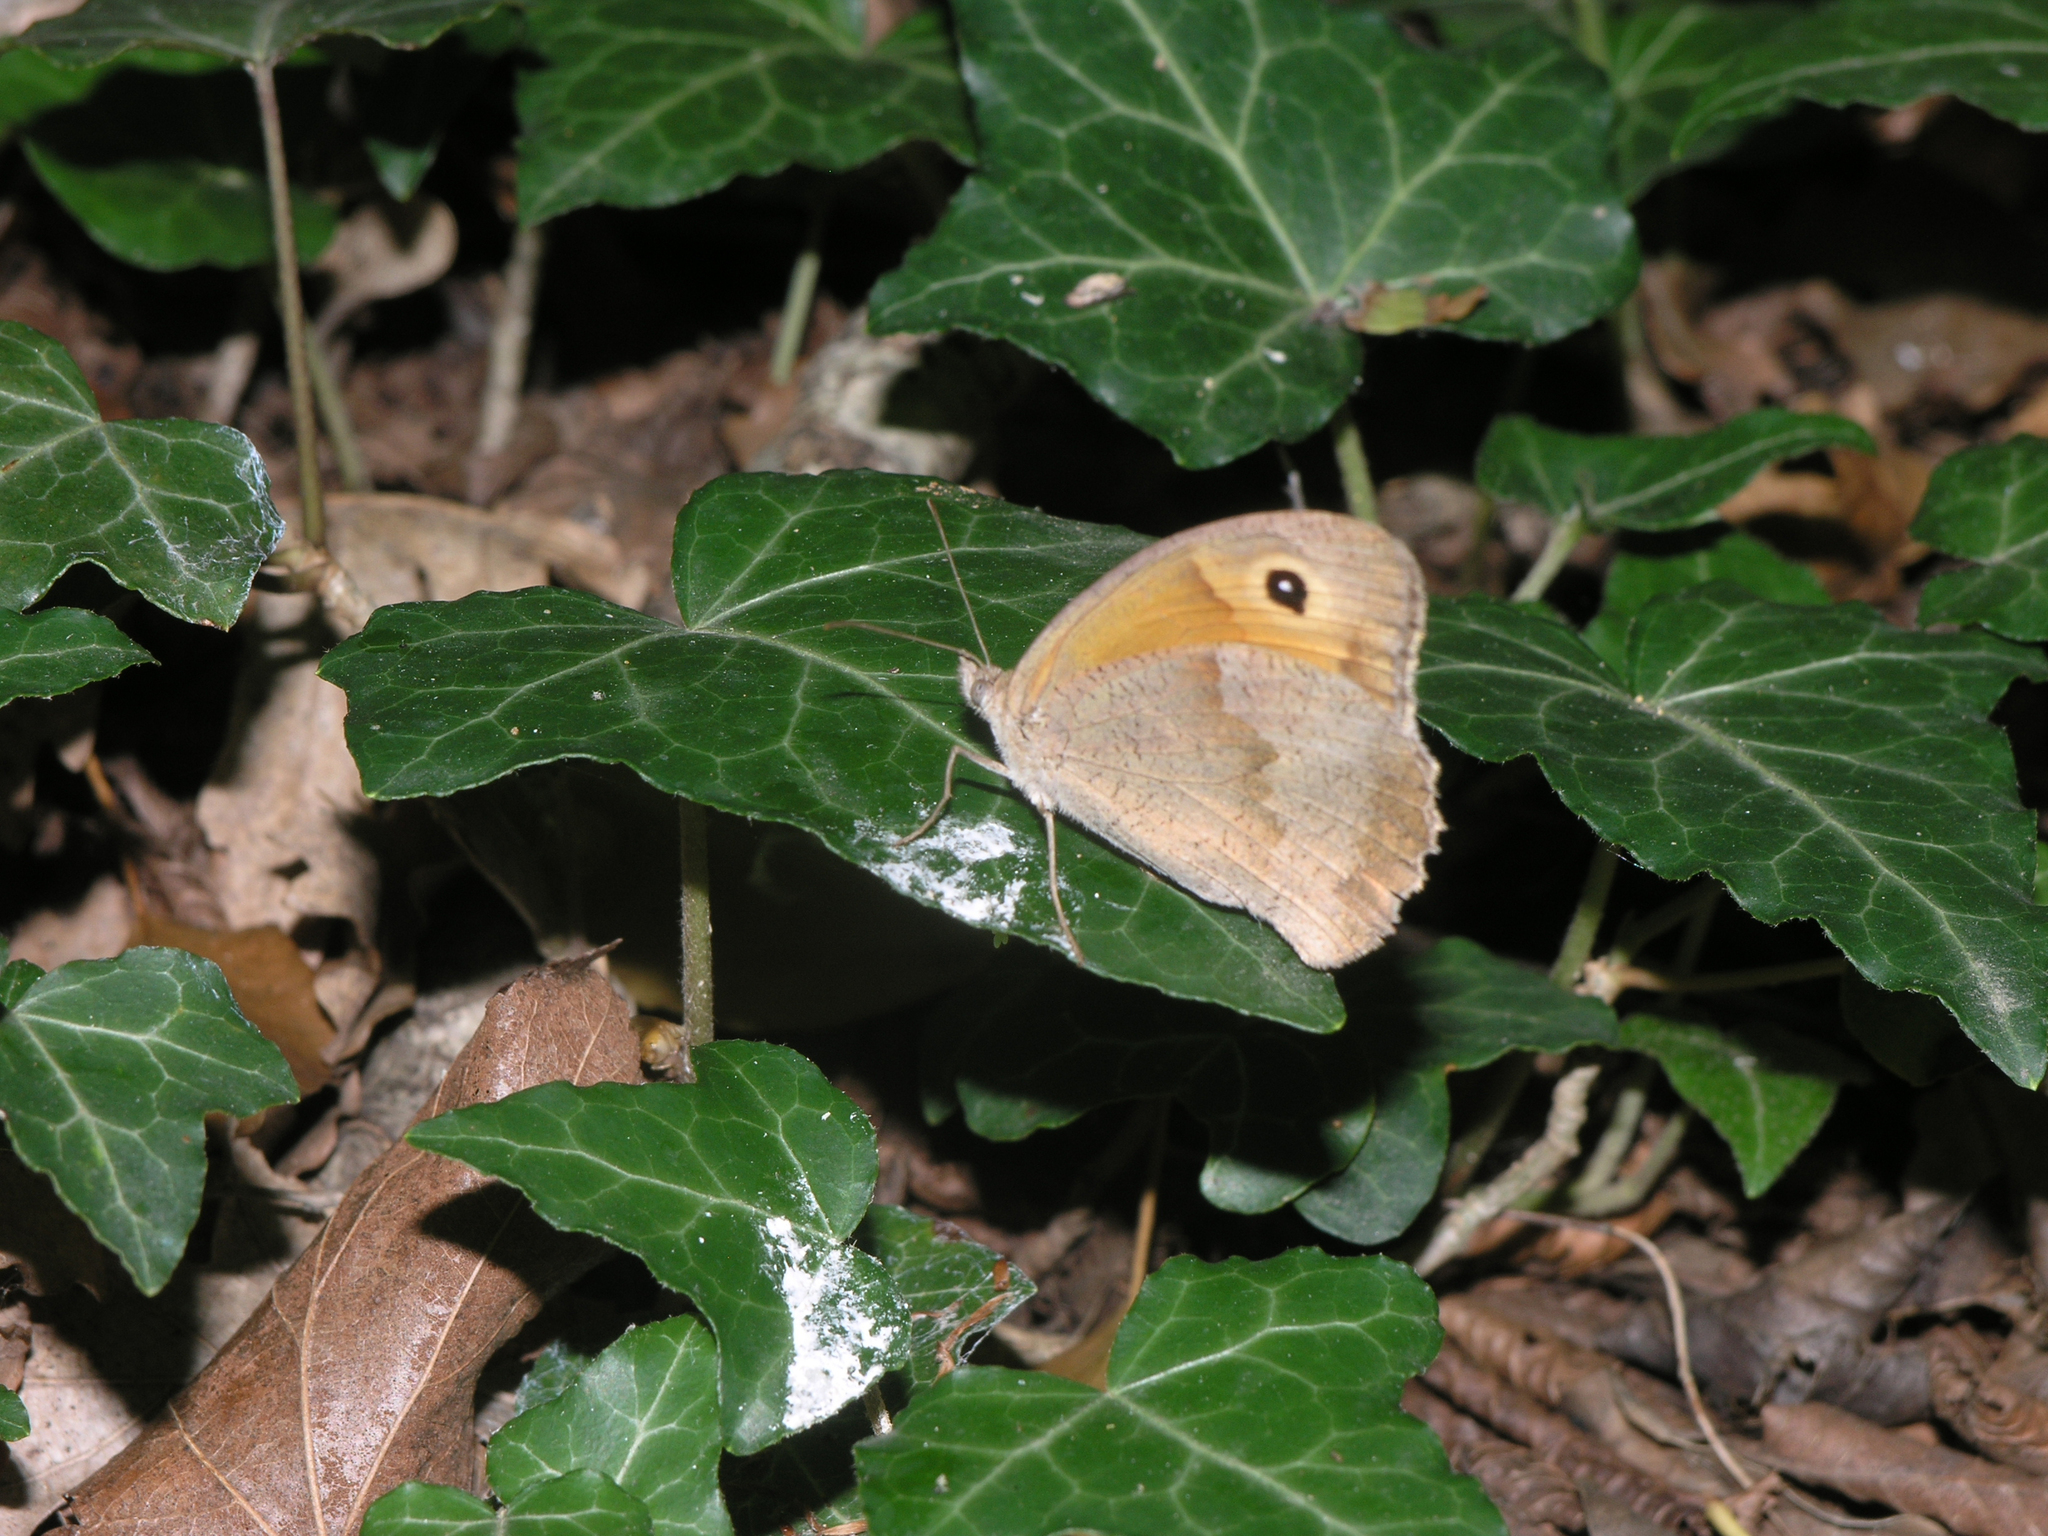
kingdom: Animalia
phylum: Arthropoda
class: Insecta
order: Lepidoptera
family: Nymphalidae
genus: Maniola
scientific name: Maniola jurtina
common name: Meadow brown
